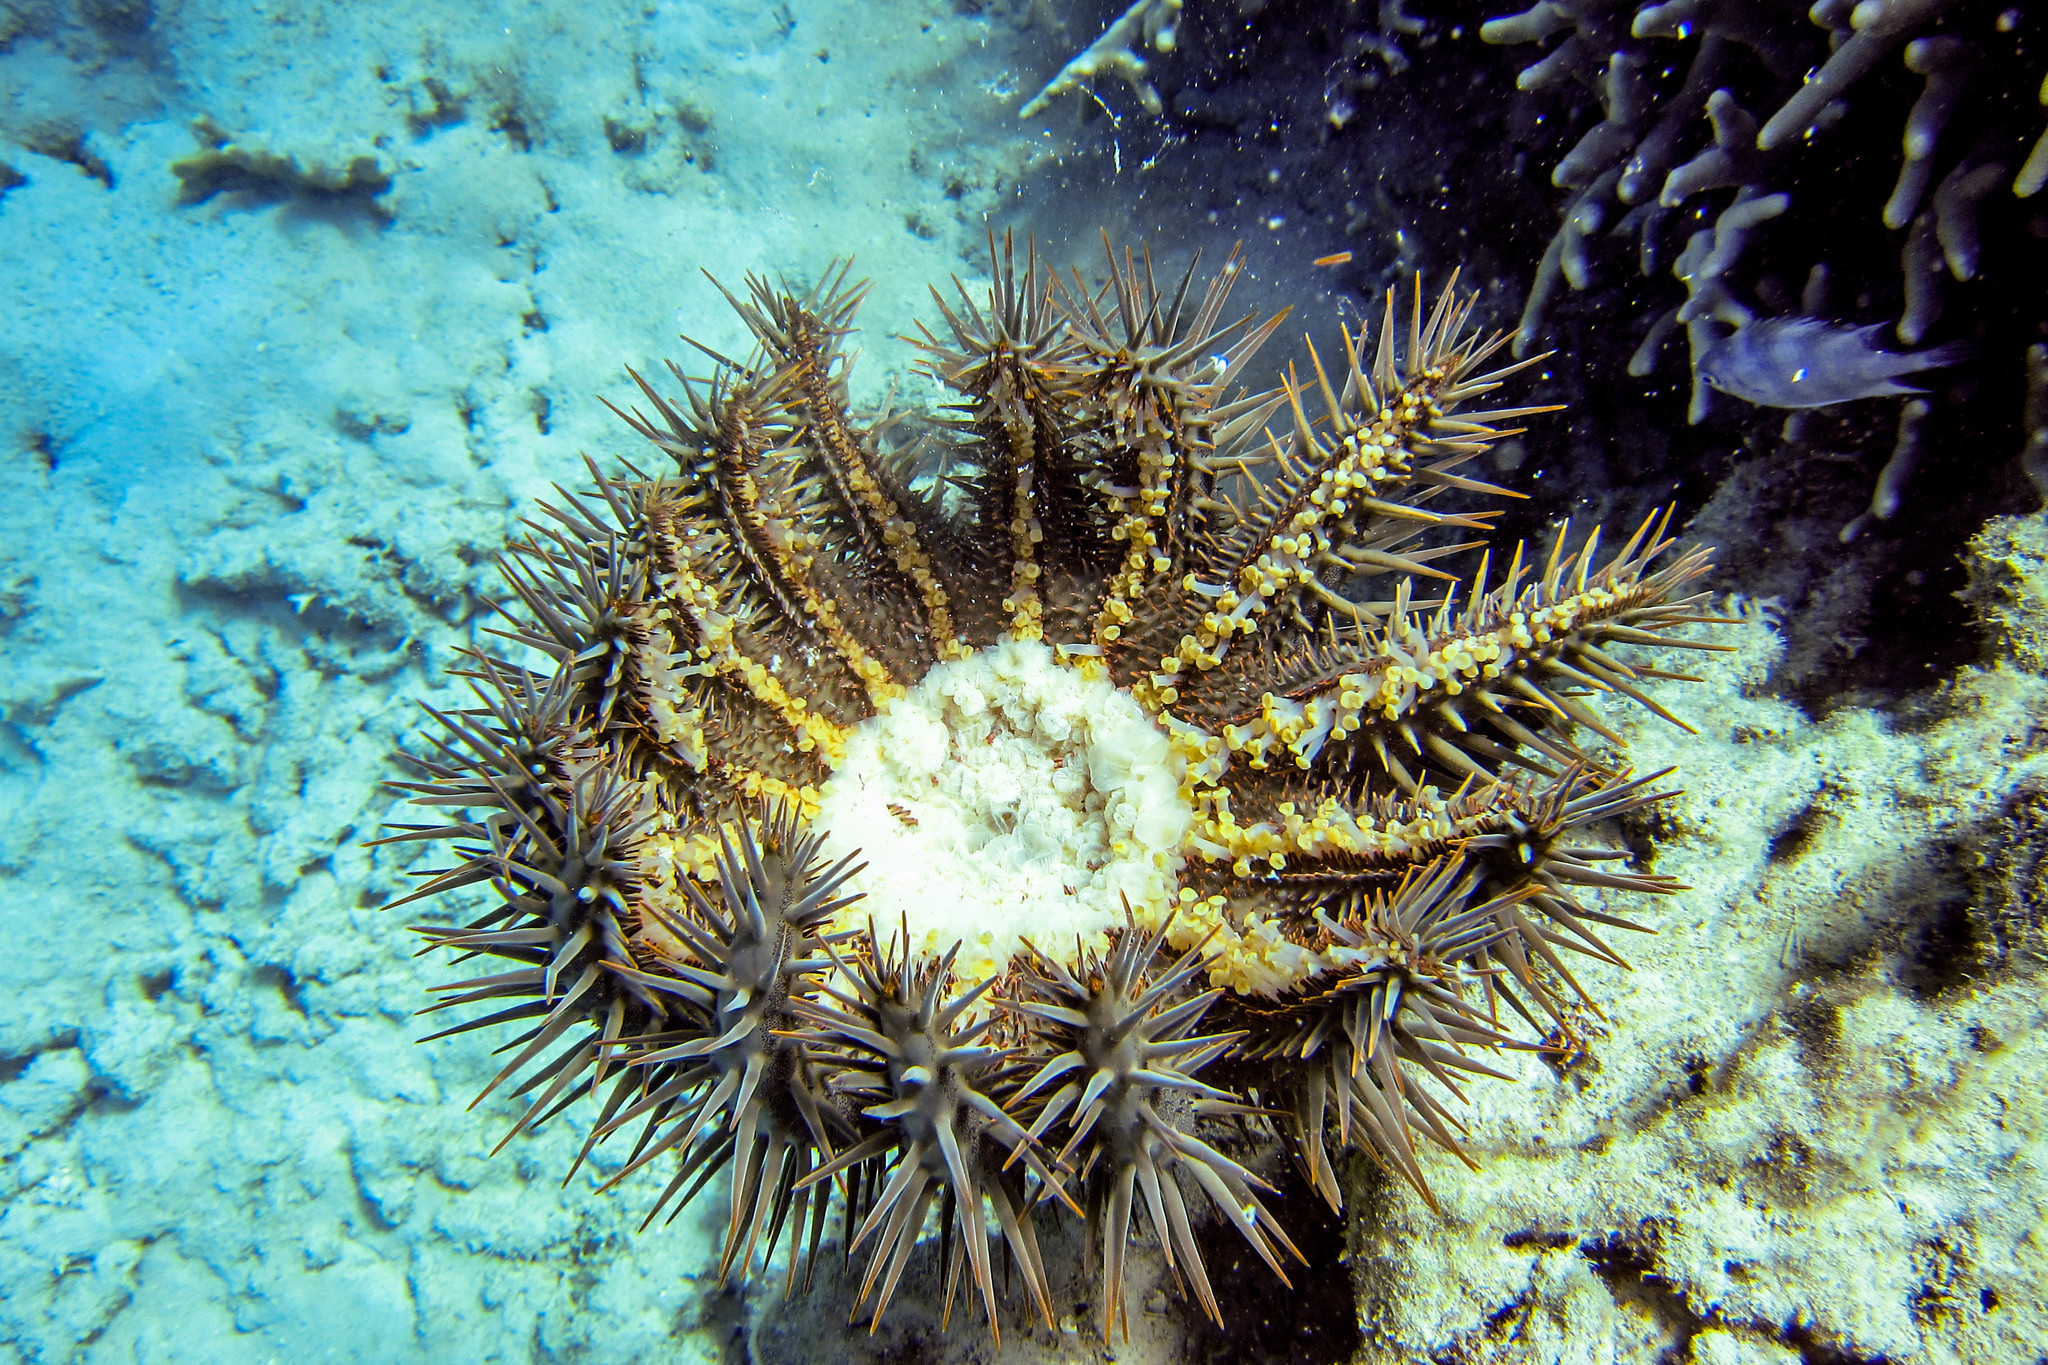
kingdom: Animalia
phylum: Echinodermata
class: Asteroidea
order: Valvatida
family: Acanthasteridae
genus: Acanthaster
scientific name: Acanthaster planci
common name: Crown-of-thorns
